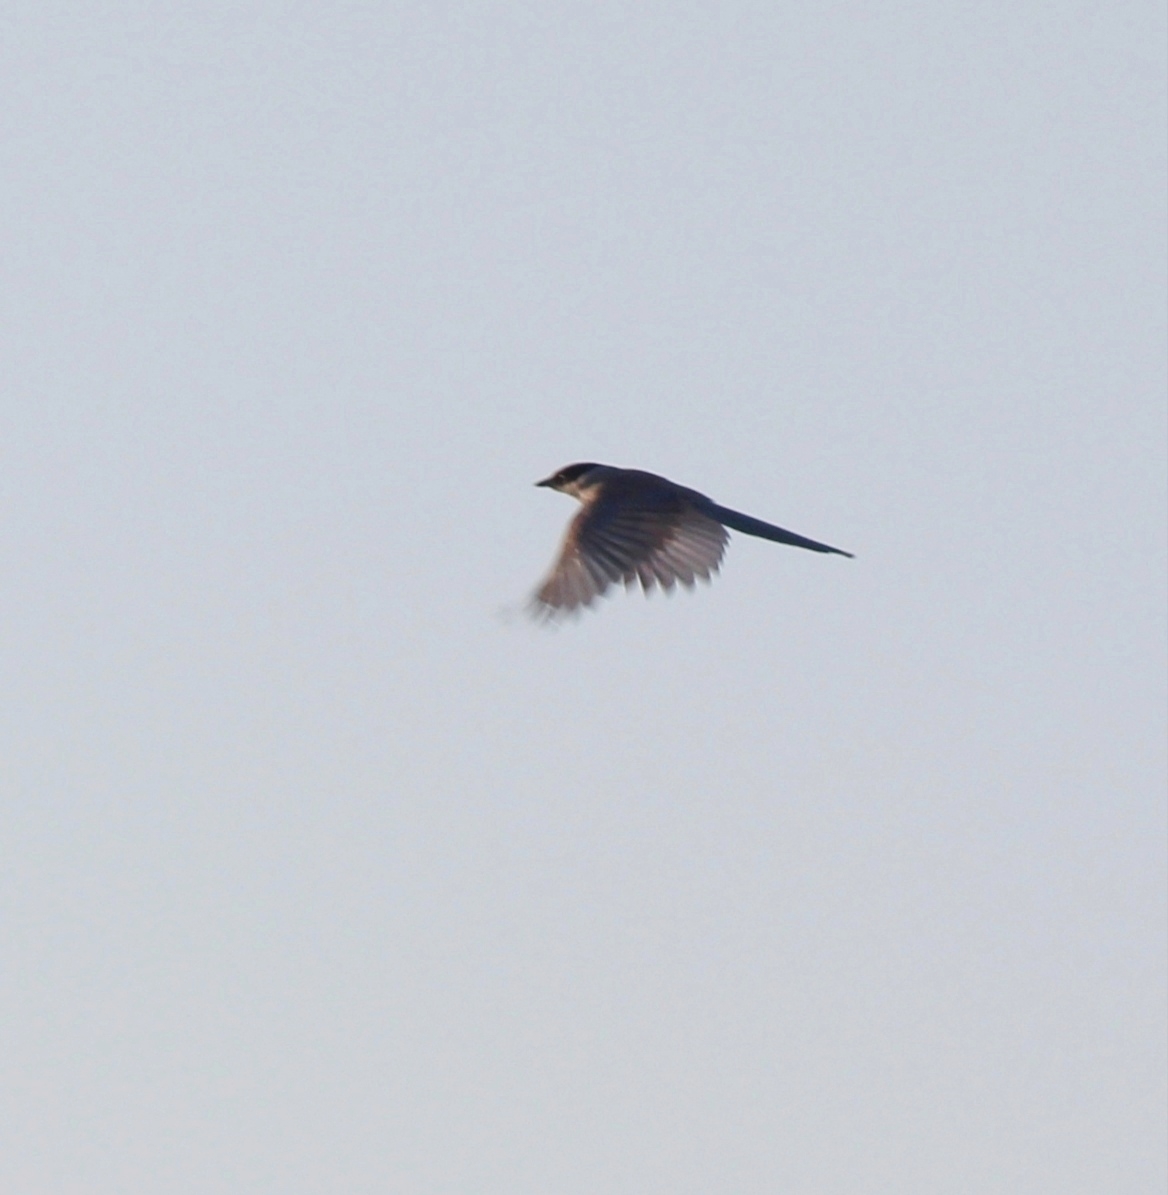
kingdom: Animalia
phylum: Chordata
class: Aves
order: Passeriformes
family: Corvidae
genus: Cyanopica
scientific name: Cyanopica cyanus
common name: Azure-winged magpie
